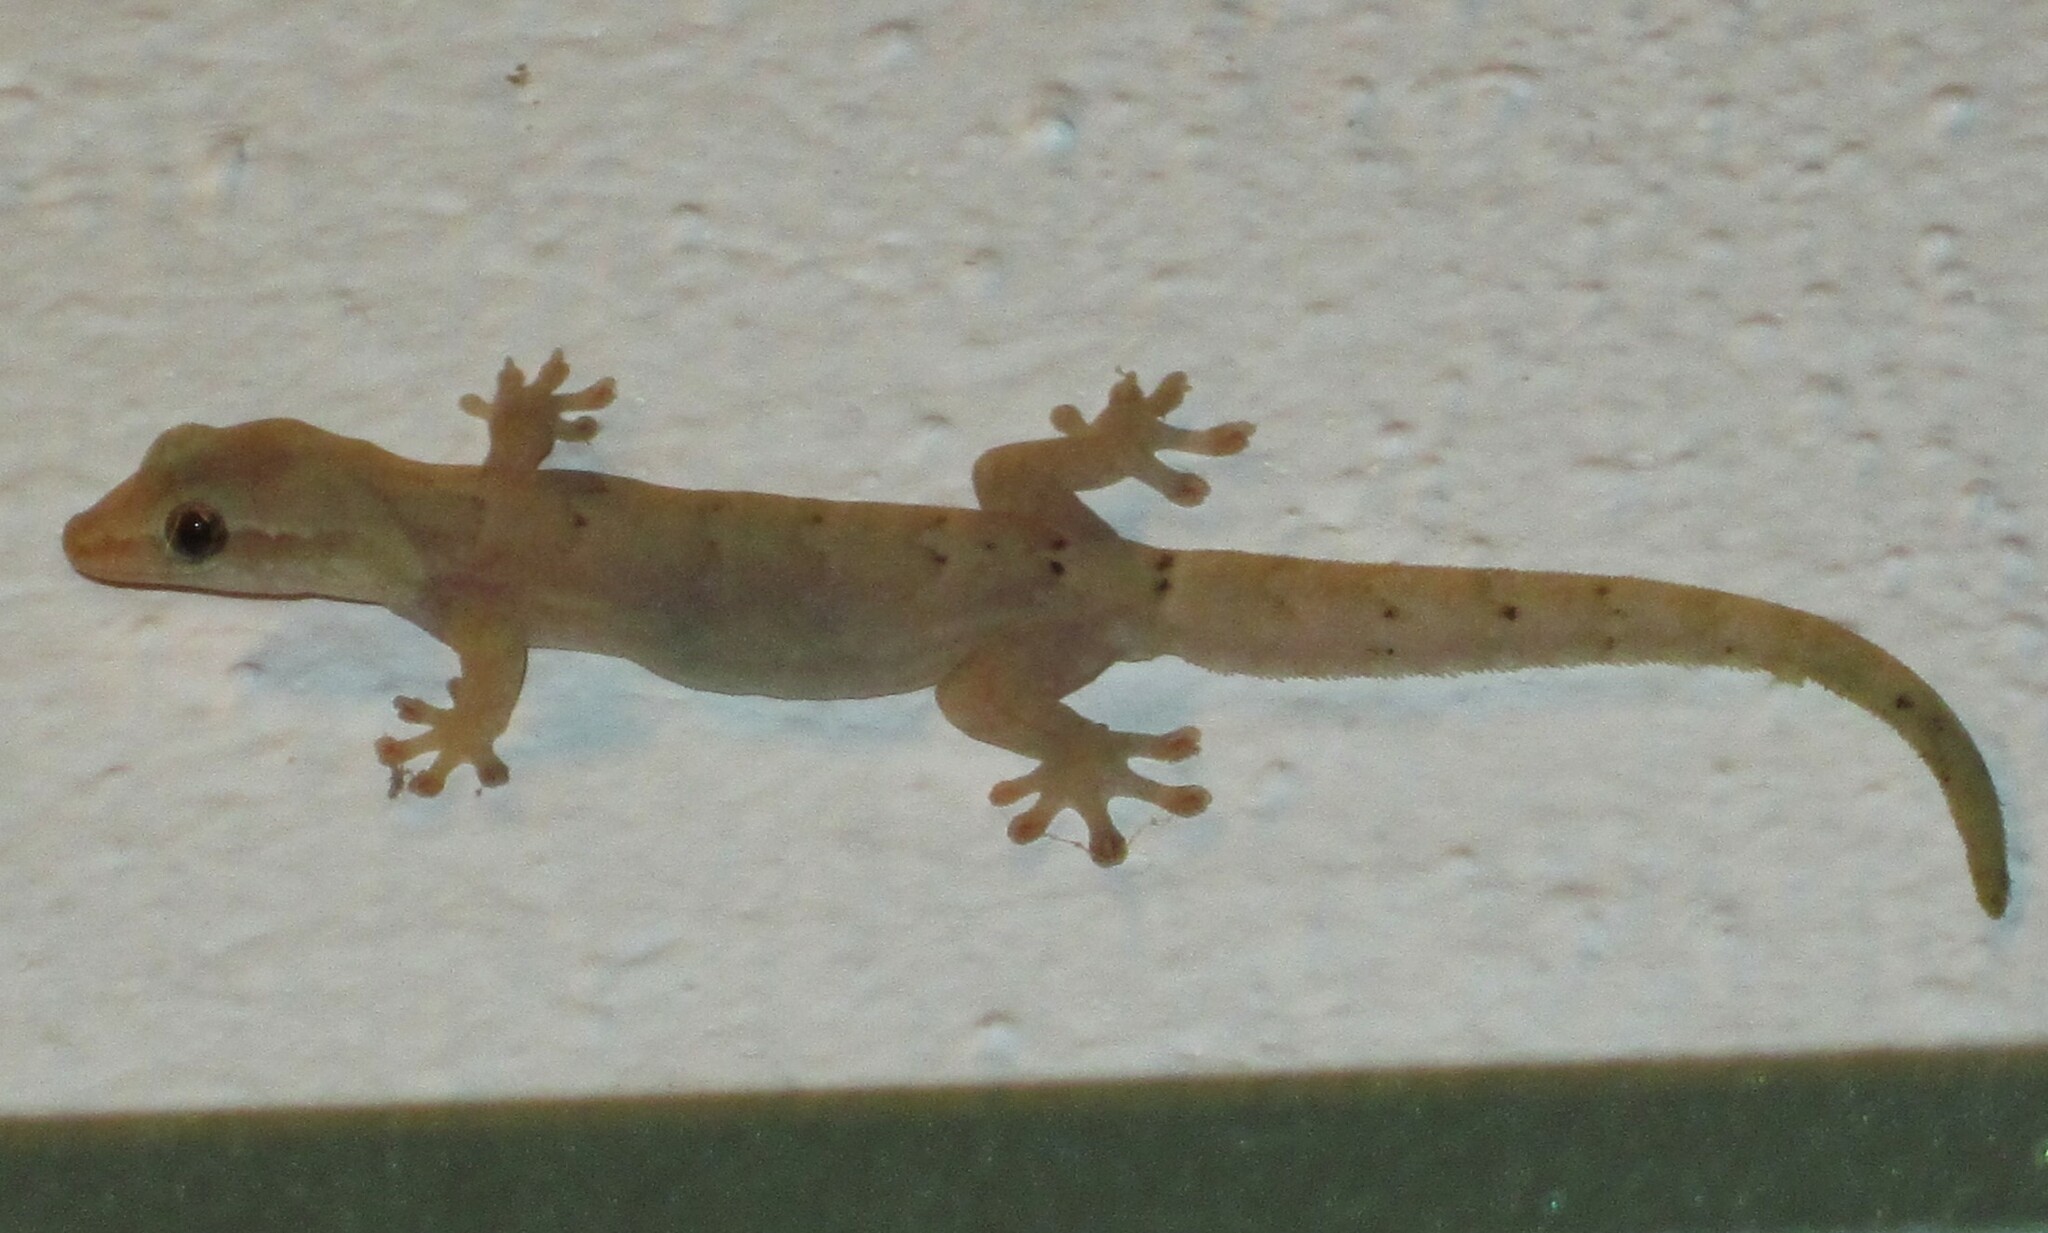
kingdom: Animalia
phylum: Chordata
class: Squamata
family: Gekkonidae
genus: Lepidodactylus
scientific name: Lepidodactylus lugubris
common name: Mourning gecko
